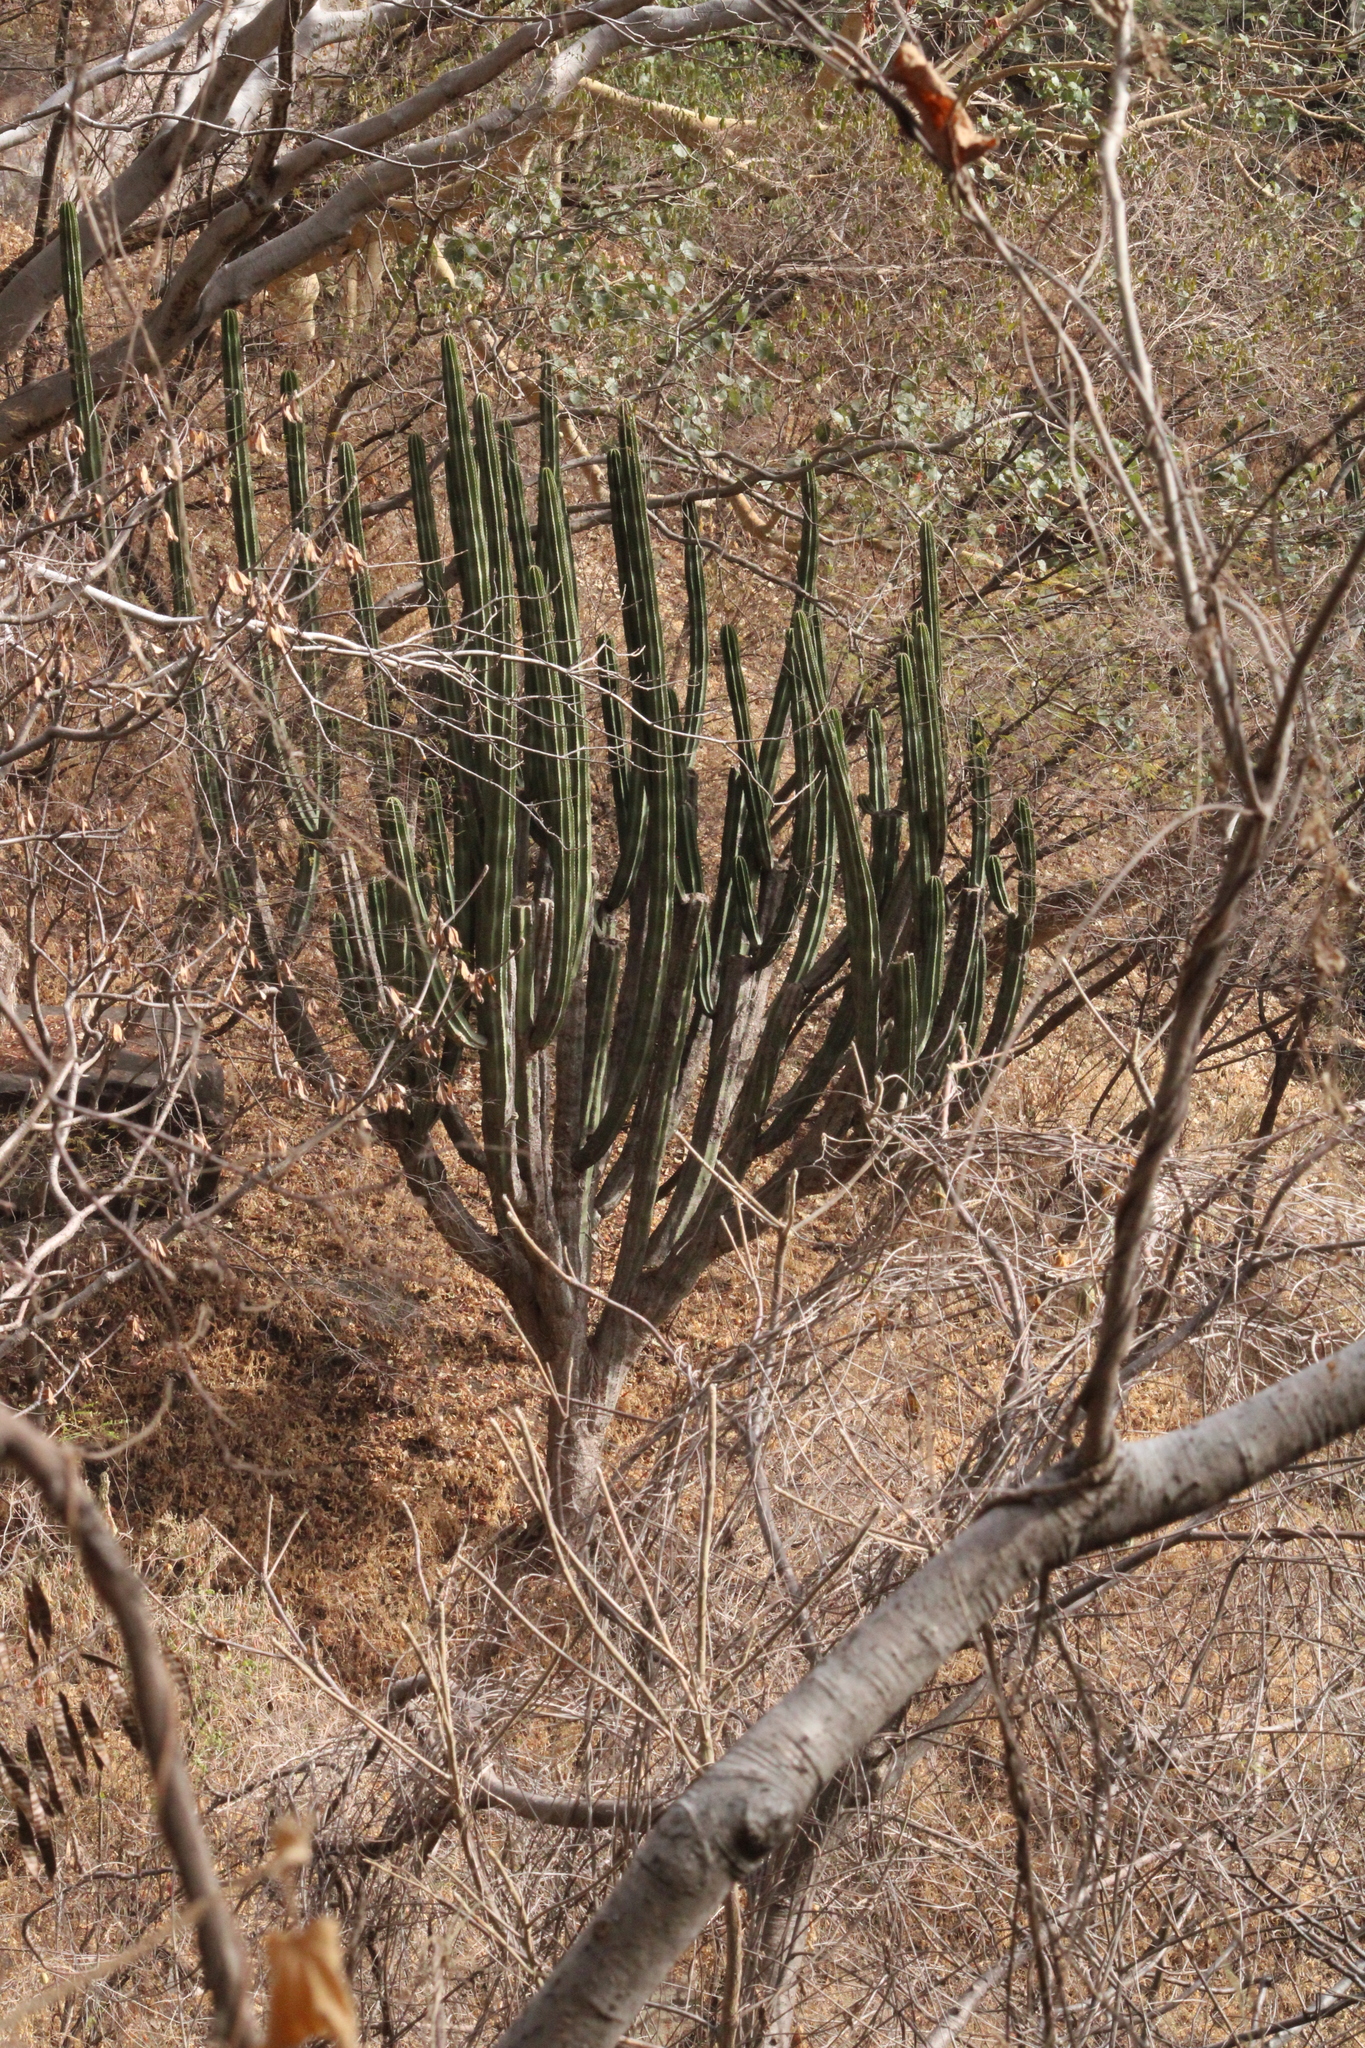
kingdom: Plantae
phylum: Tracheophyta
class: Magnoliopsida
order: Caryophyllales
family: Cactaceae
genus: Stenocereus
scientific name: Stenocereus queretaroensis
